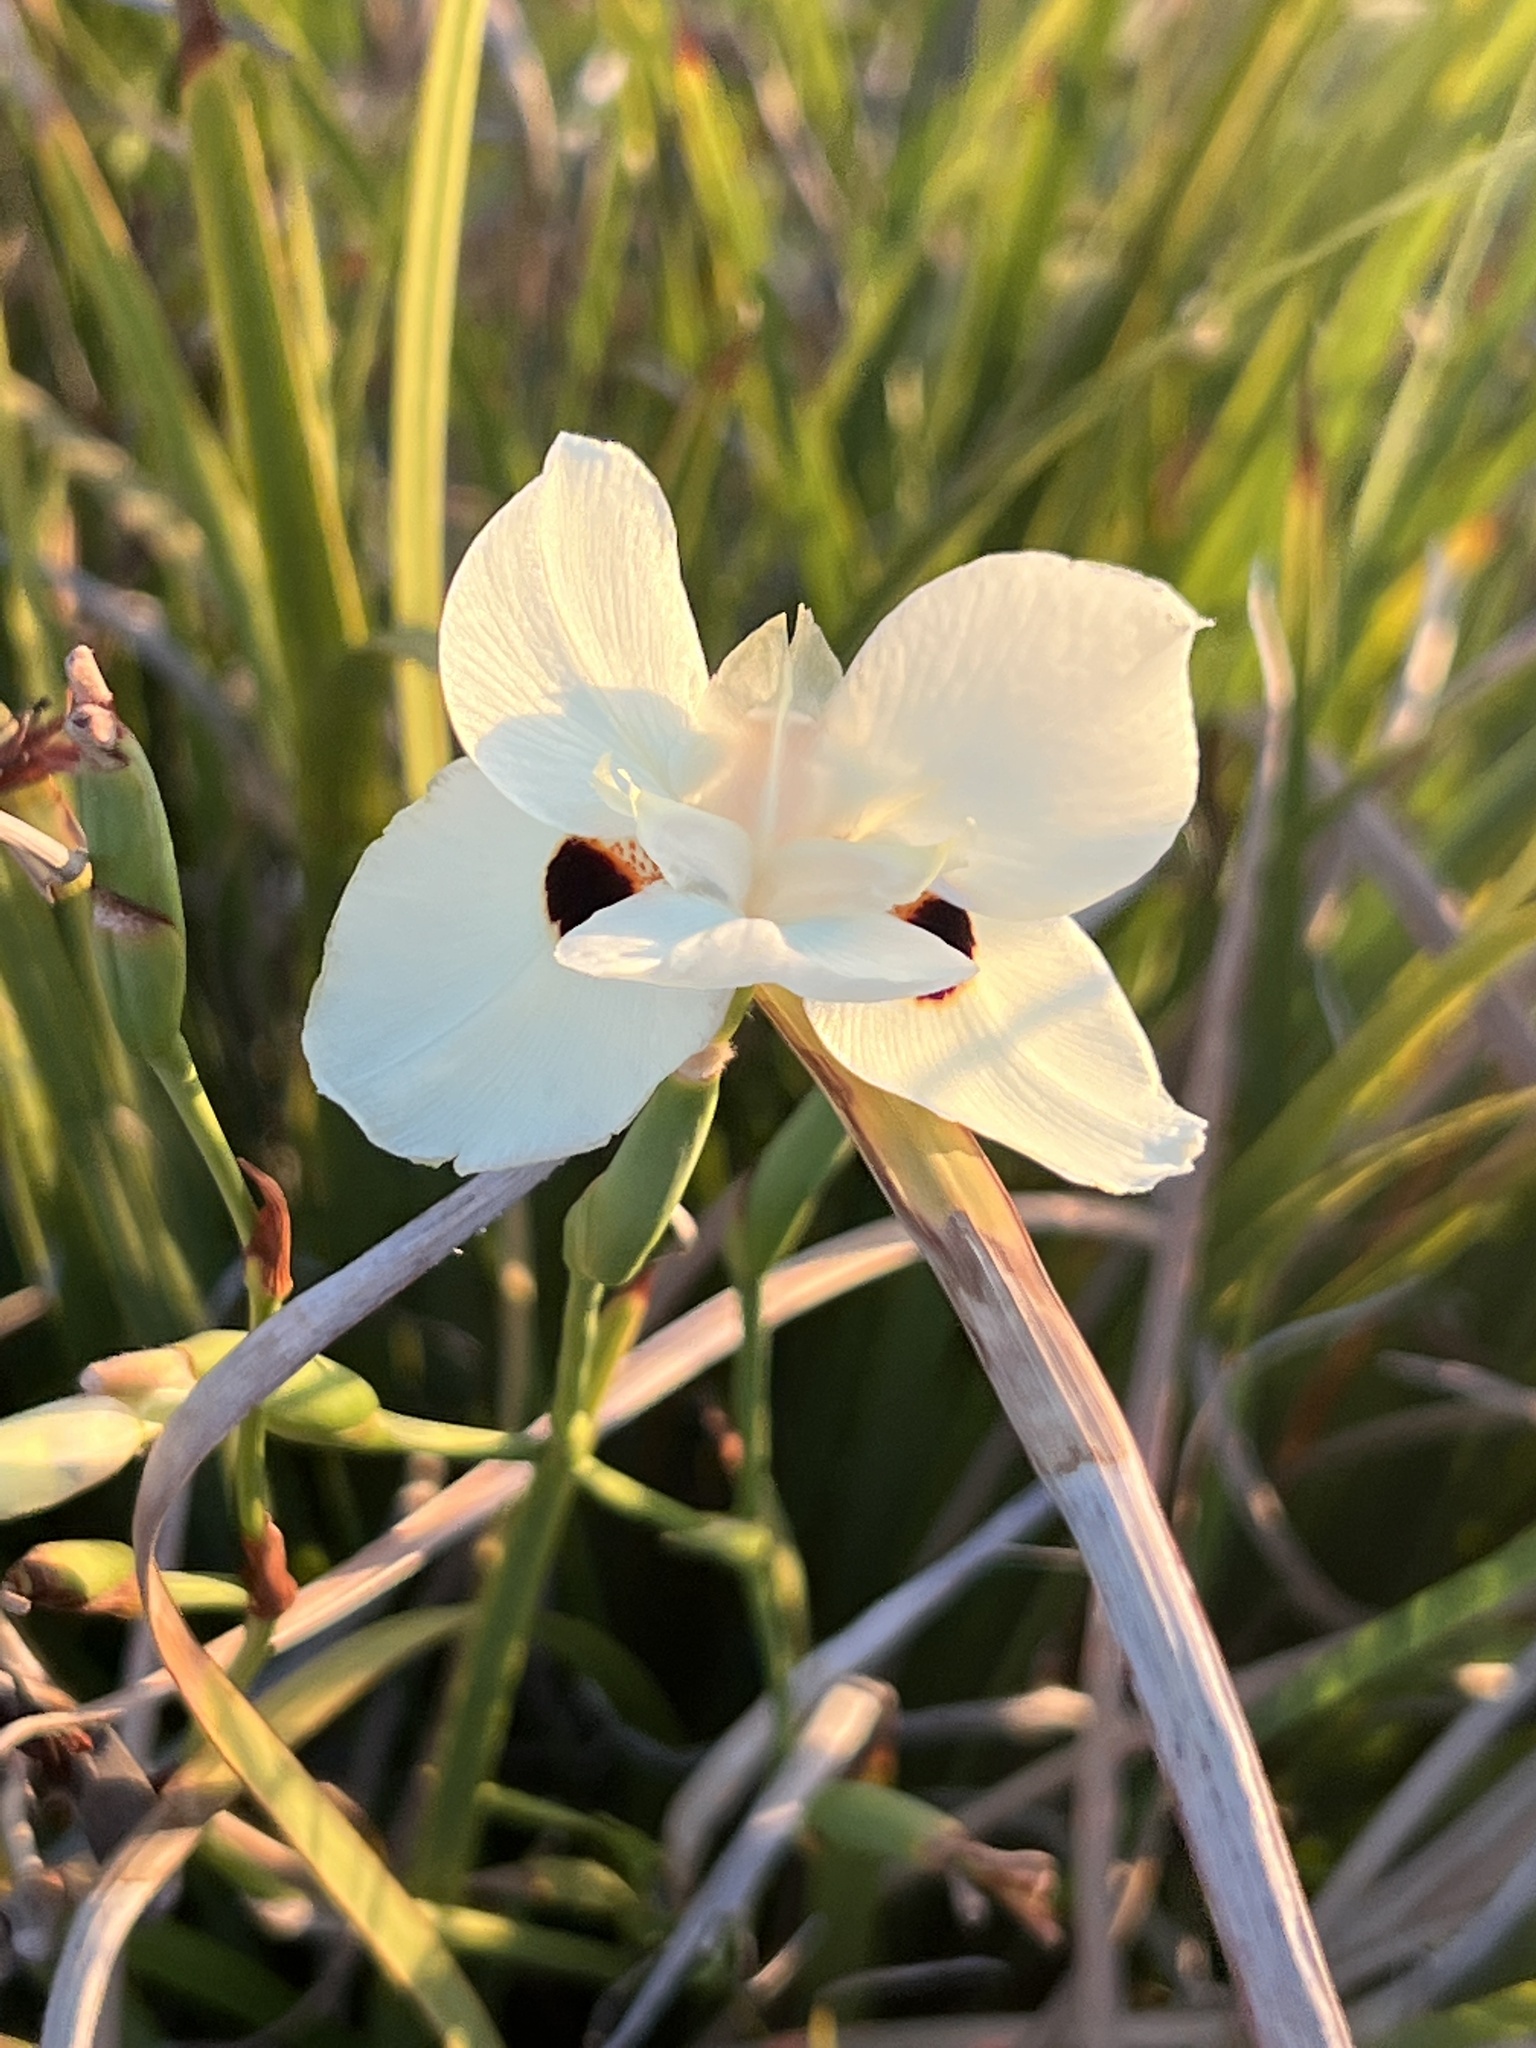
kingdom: Plantae
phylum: Tracheophyta
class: Liliopsida
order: Asparagales
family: Iridaceae
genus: Dietes
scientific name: Dietes bicolor
